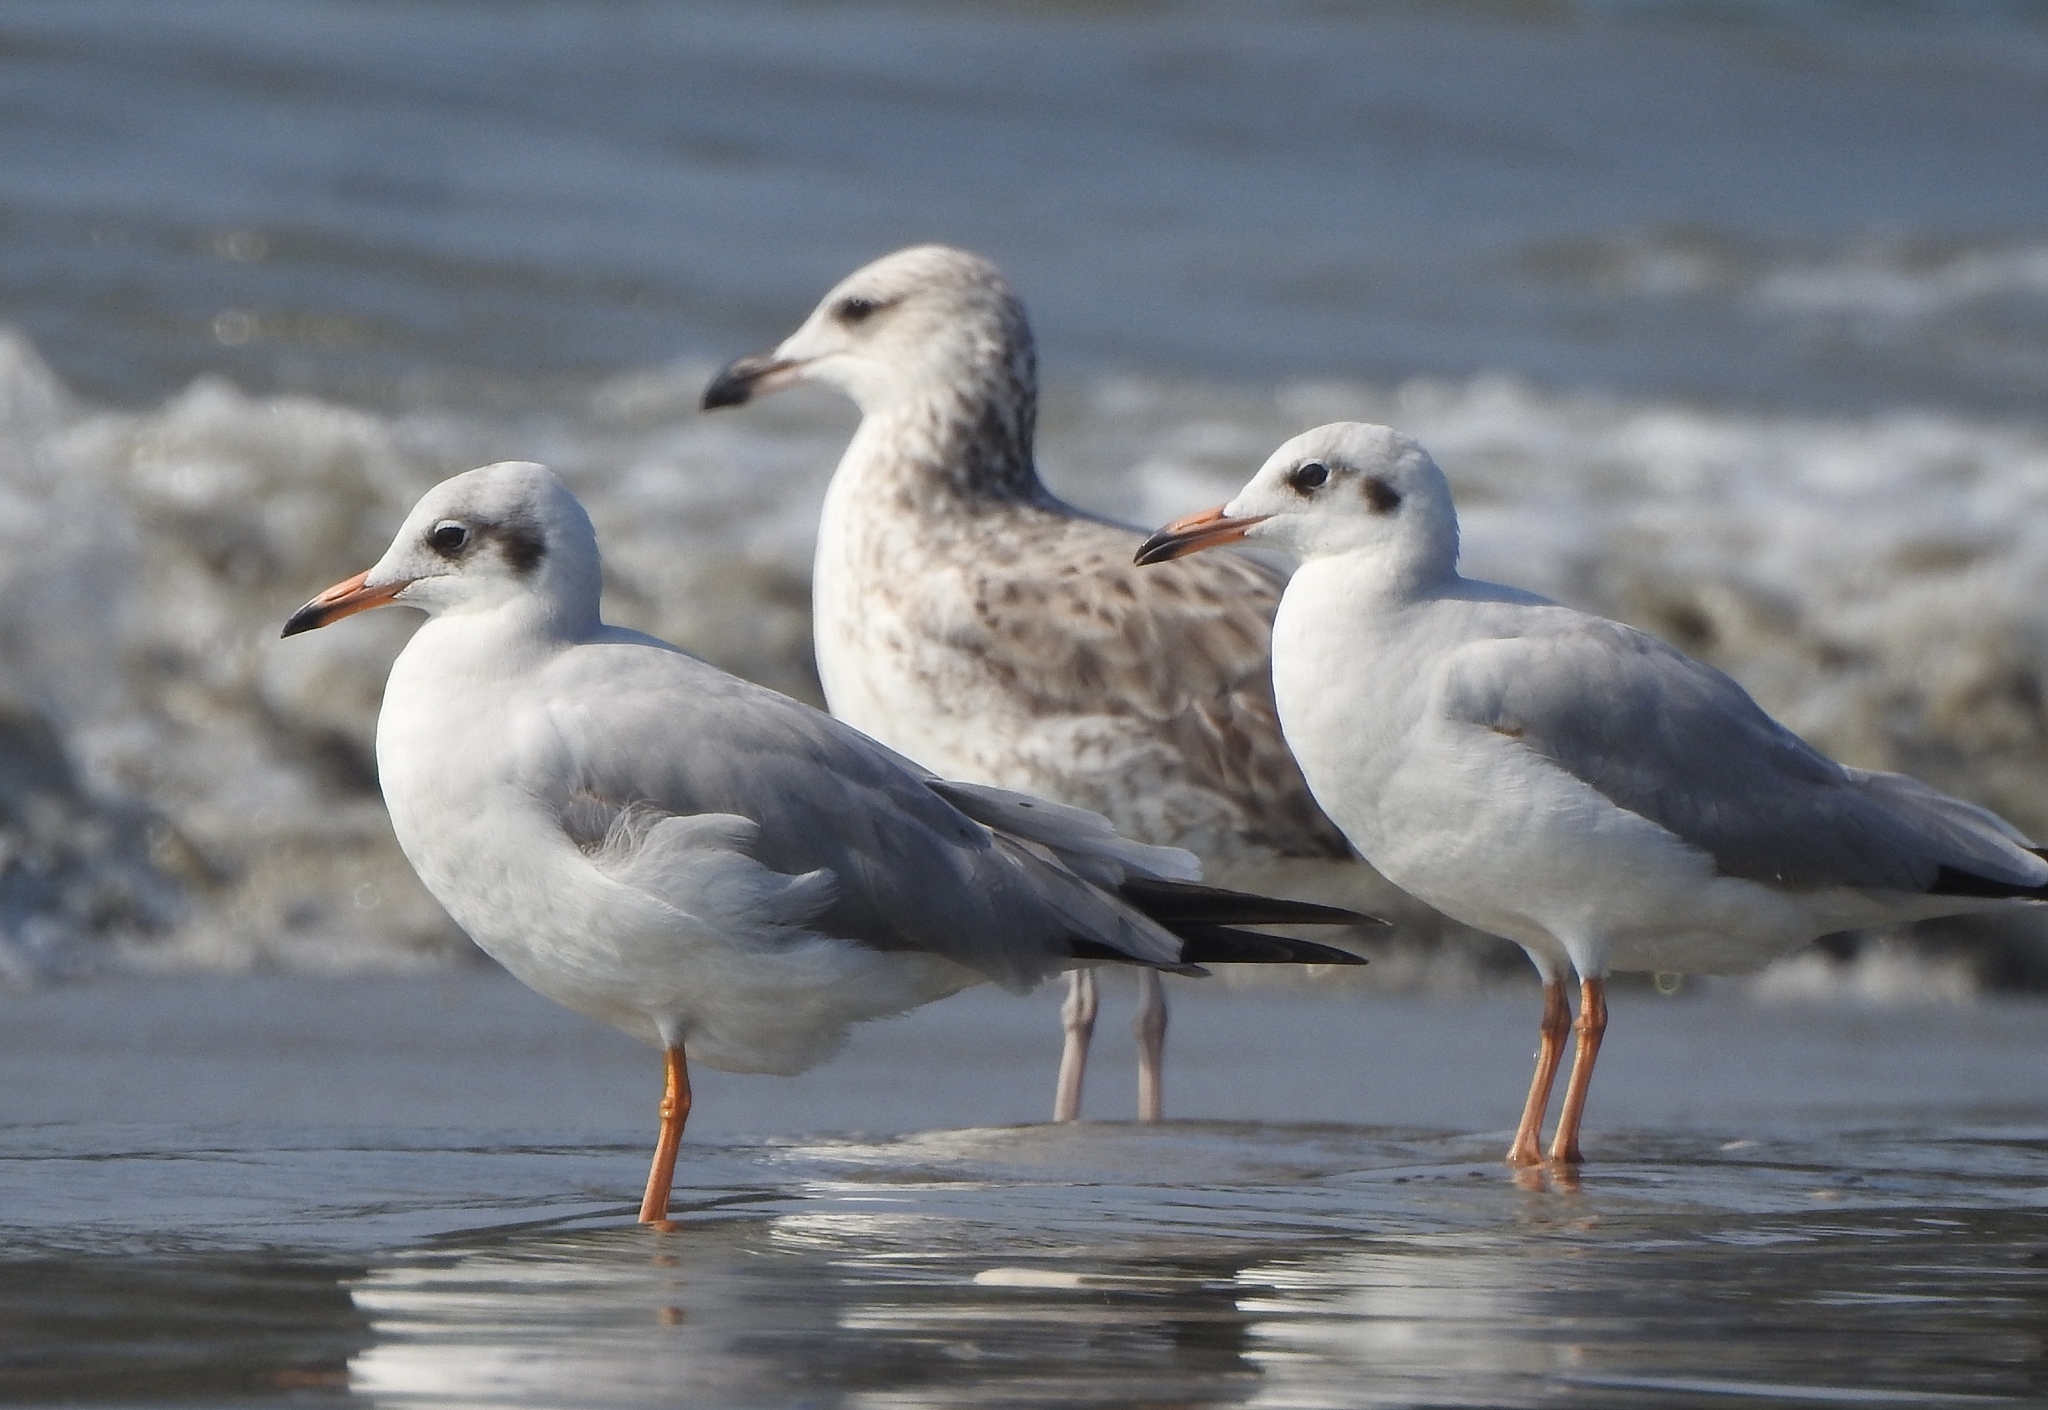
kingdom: Animalia
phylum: Chordata
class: Aves
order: Charadriiformes
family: Laridae
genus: Chroicocephalus
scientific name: Chroicocephalus brunnicephalus
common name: Brown-headed gull
